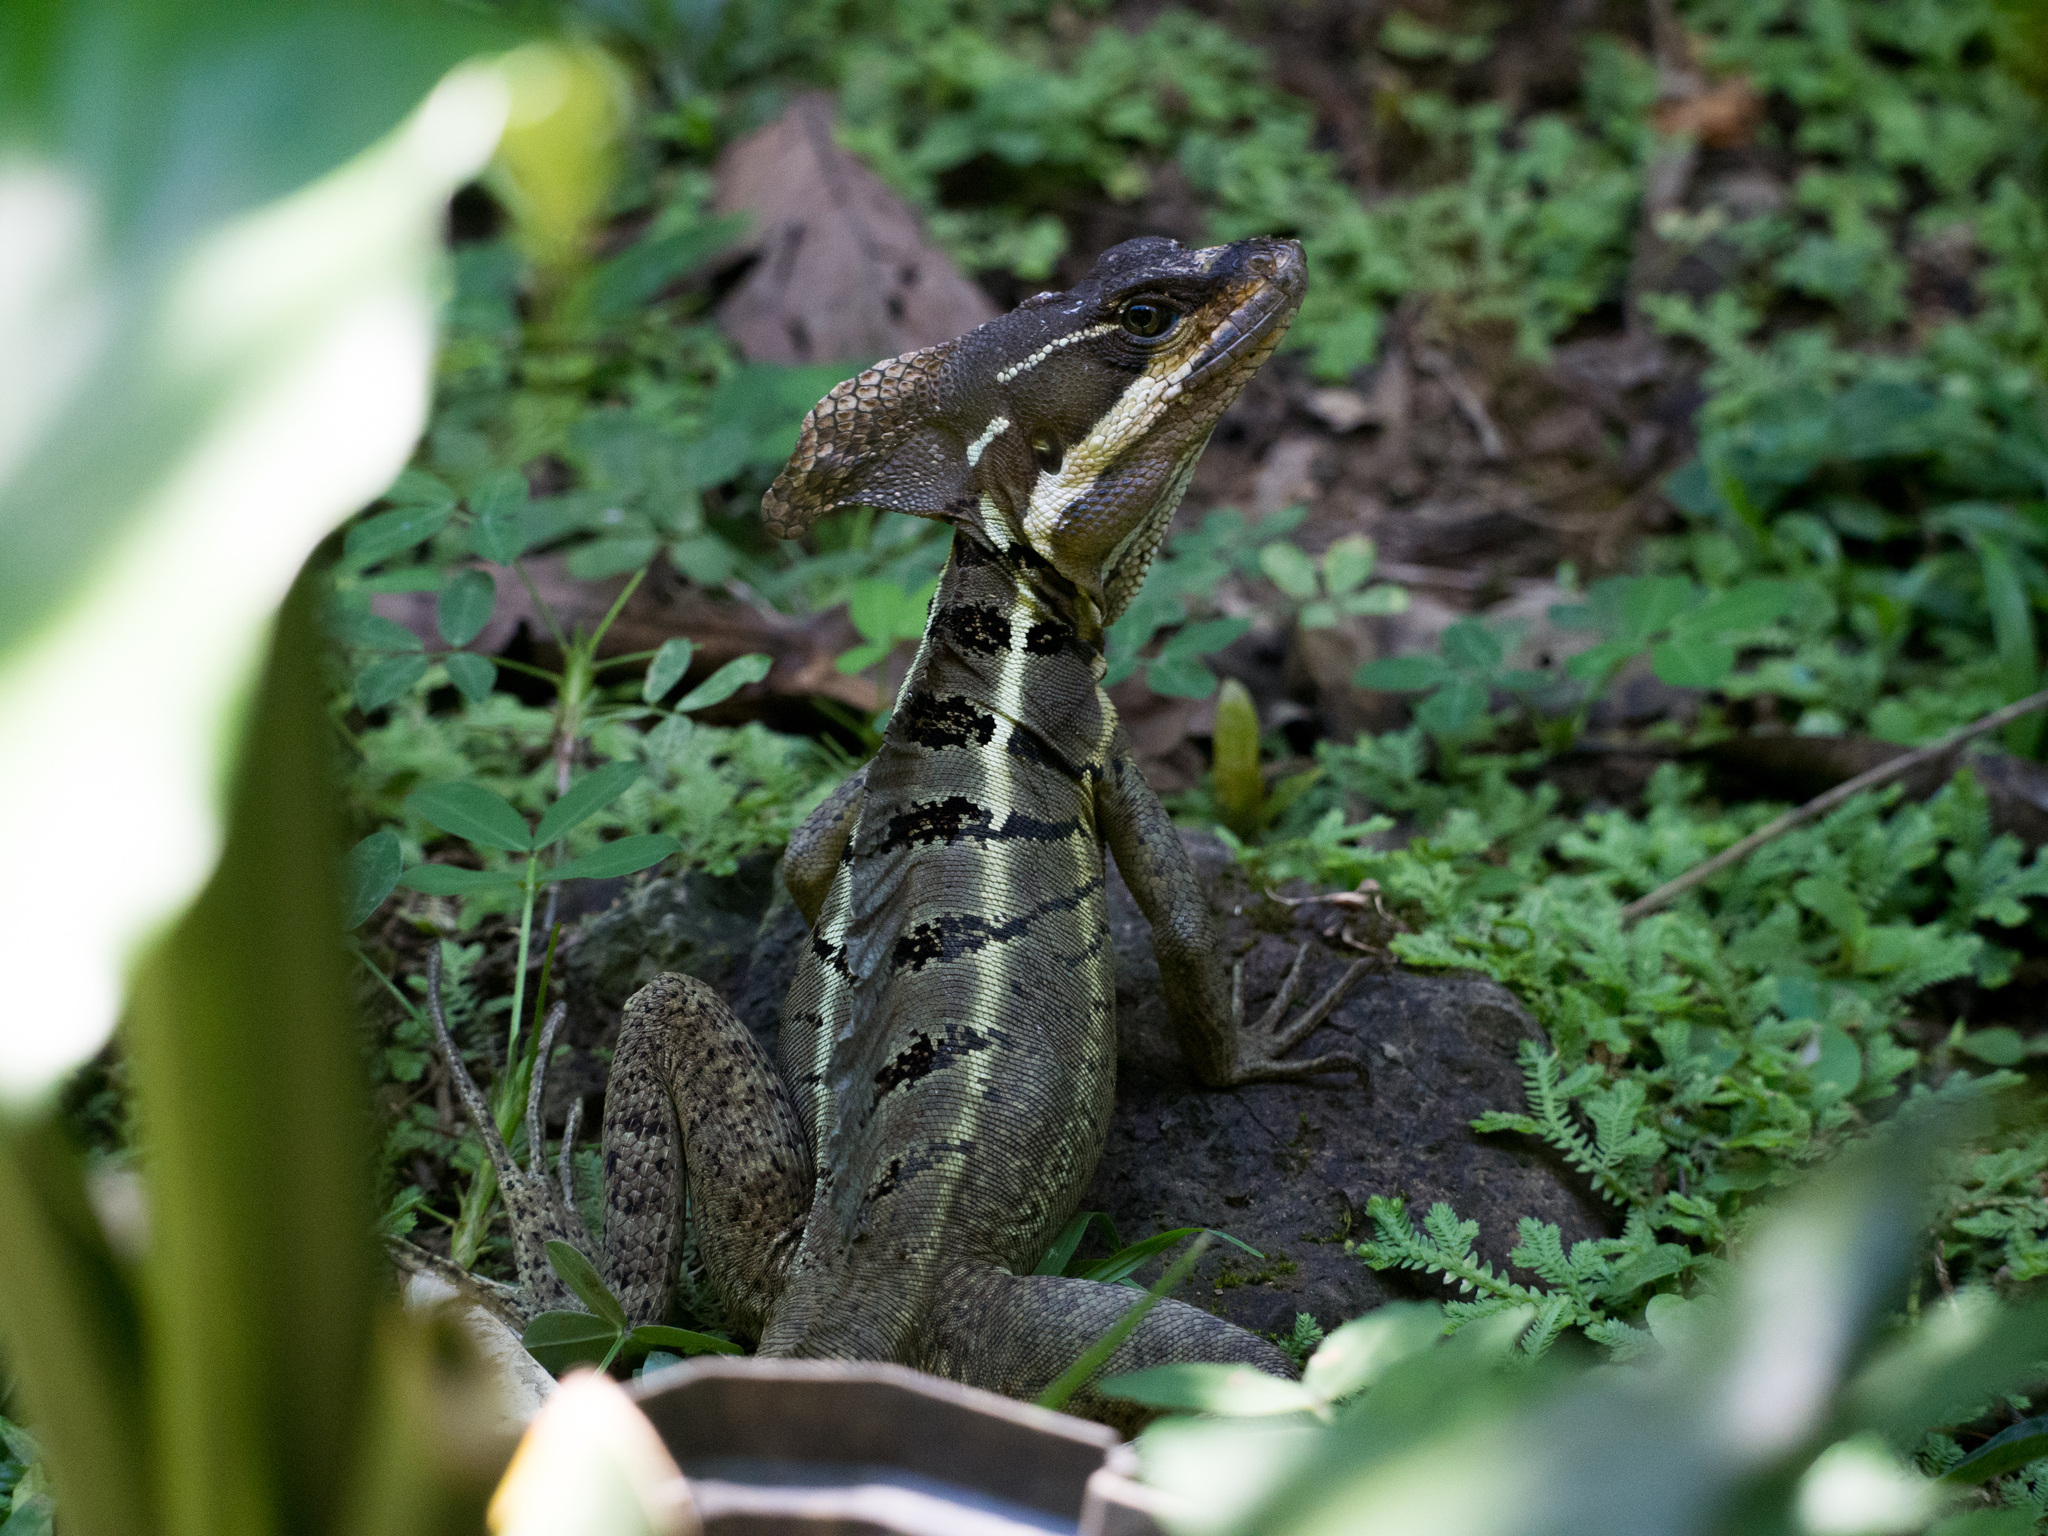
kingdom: Animalia
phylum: Chordata
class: Squamata
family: Corytophanidae
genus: Basiliscus
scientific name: Basiliscus basiliscus
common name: Common basilisk
